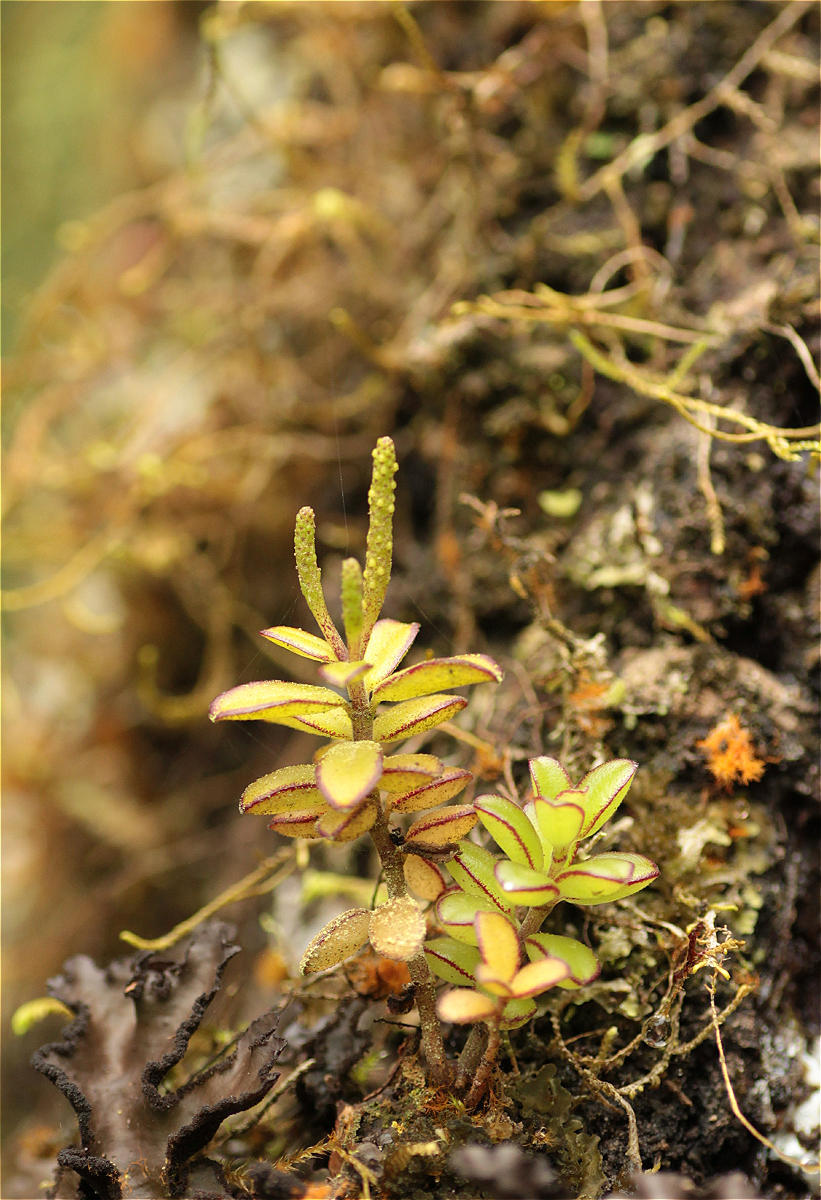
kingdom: Plantae
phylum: Tracheophyta
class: Magnoliopsida
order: Piperales
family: Piperaceae
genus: Peperomia
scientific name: Peperomia inaequalifolia
